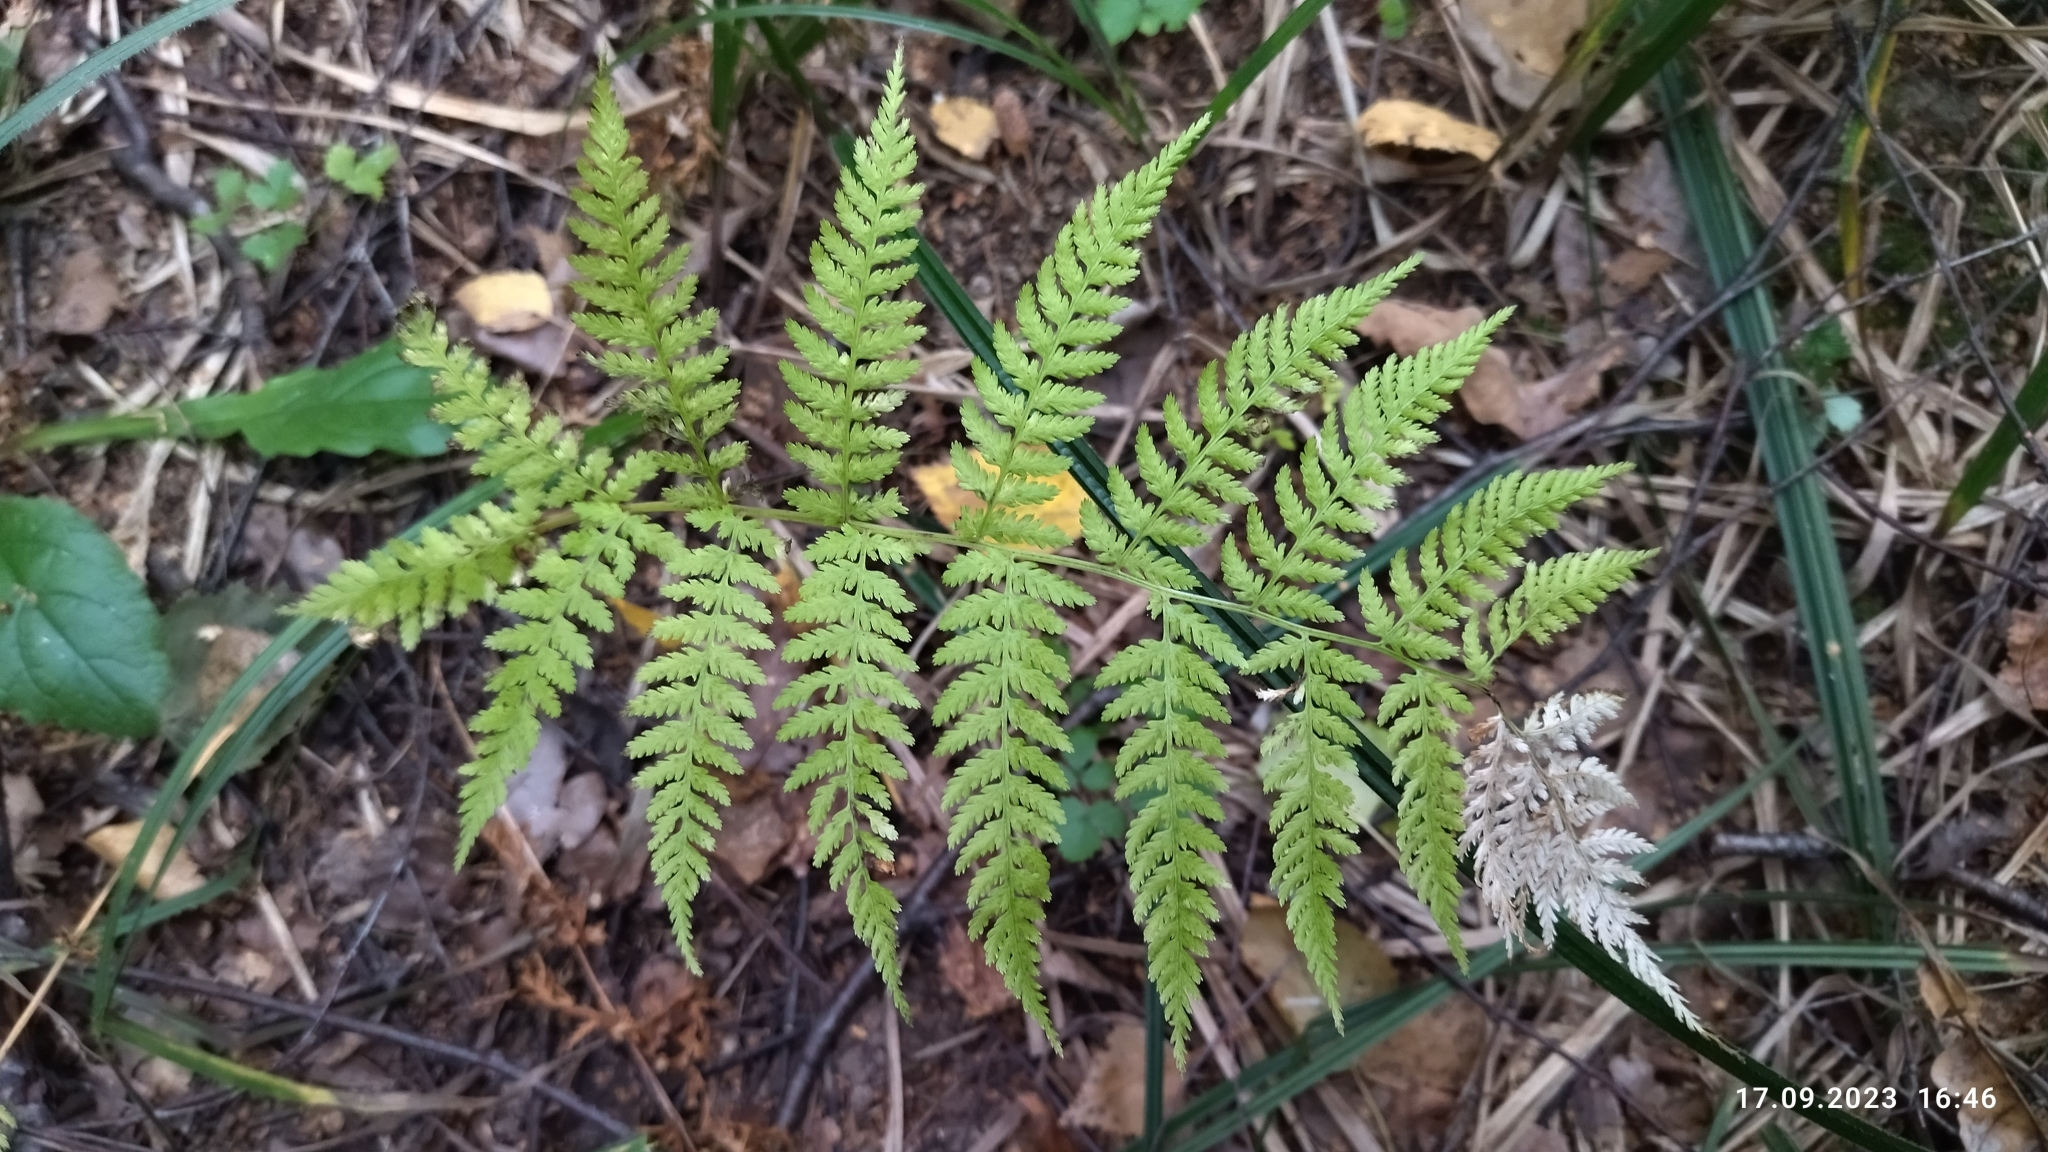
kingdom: Plantae
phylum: Tracheophyta
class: Polypodiopsida
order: Polypodiales
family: Athyriaceae
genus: Athyrium
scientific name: Athyrium filix-femina
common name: Lady fern
